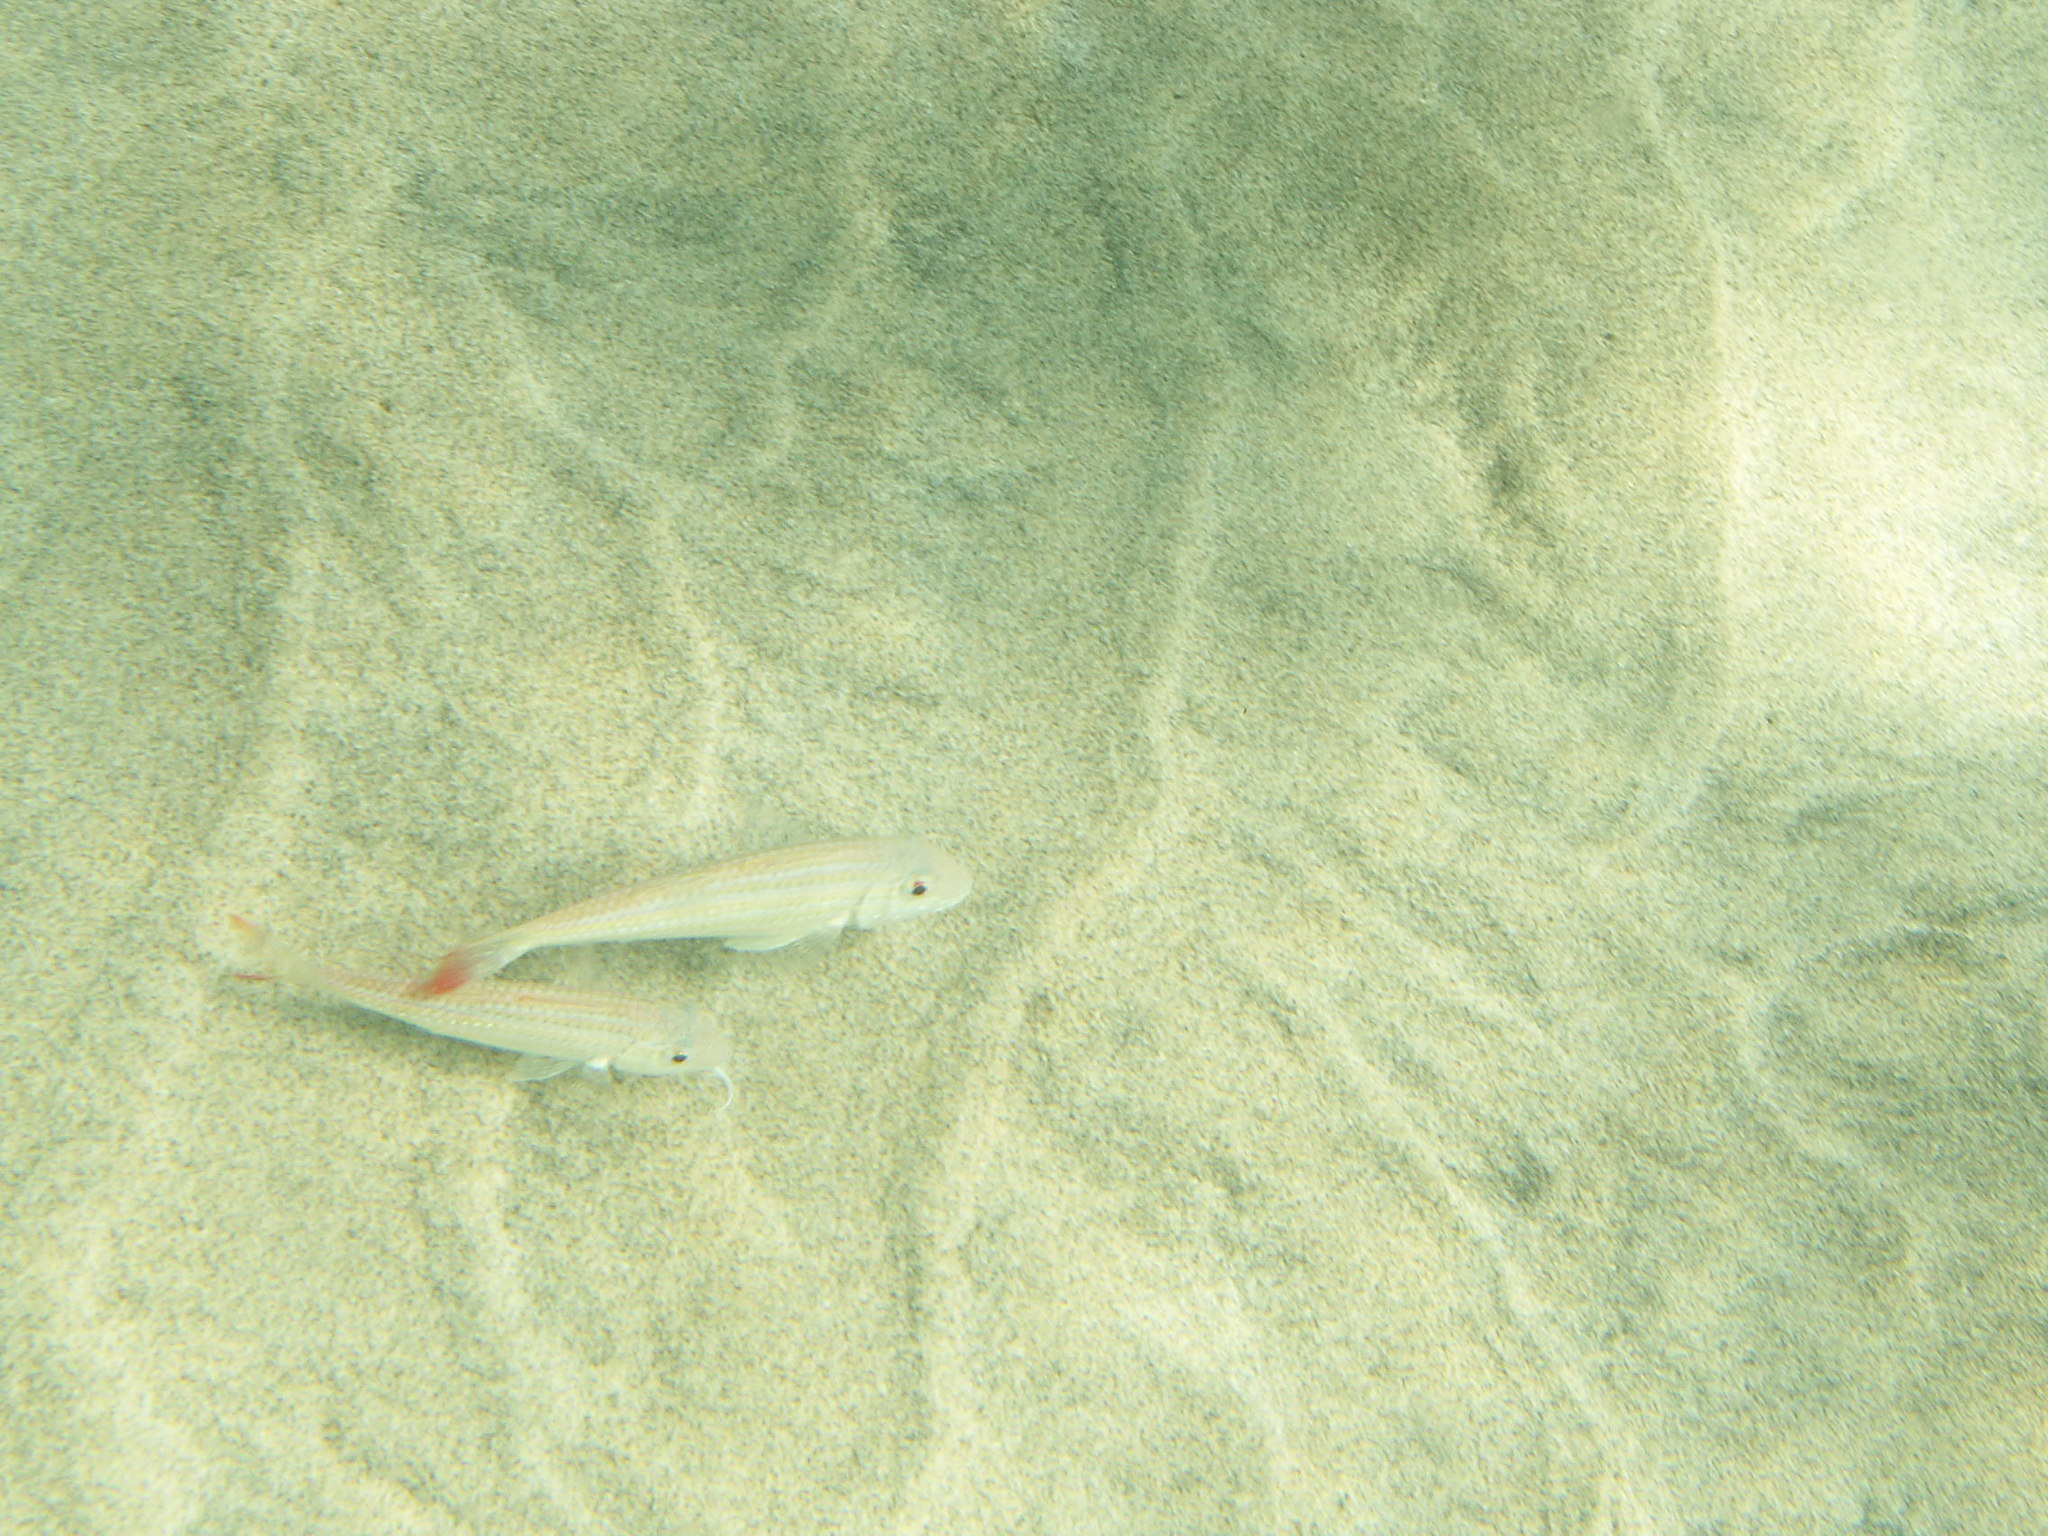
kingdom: Animalia
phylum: Chordata
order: Perciformes
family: Mullidae
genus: Pseudupeneus
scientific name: Pseudupeneus prayensis
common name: West african goatfish
